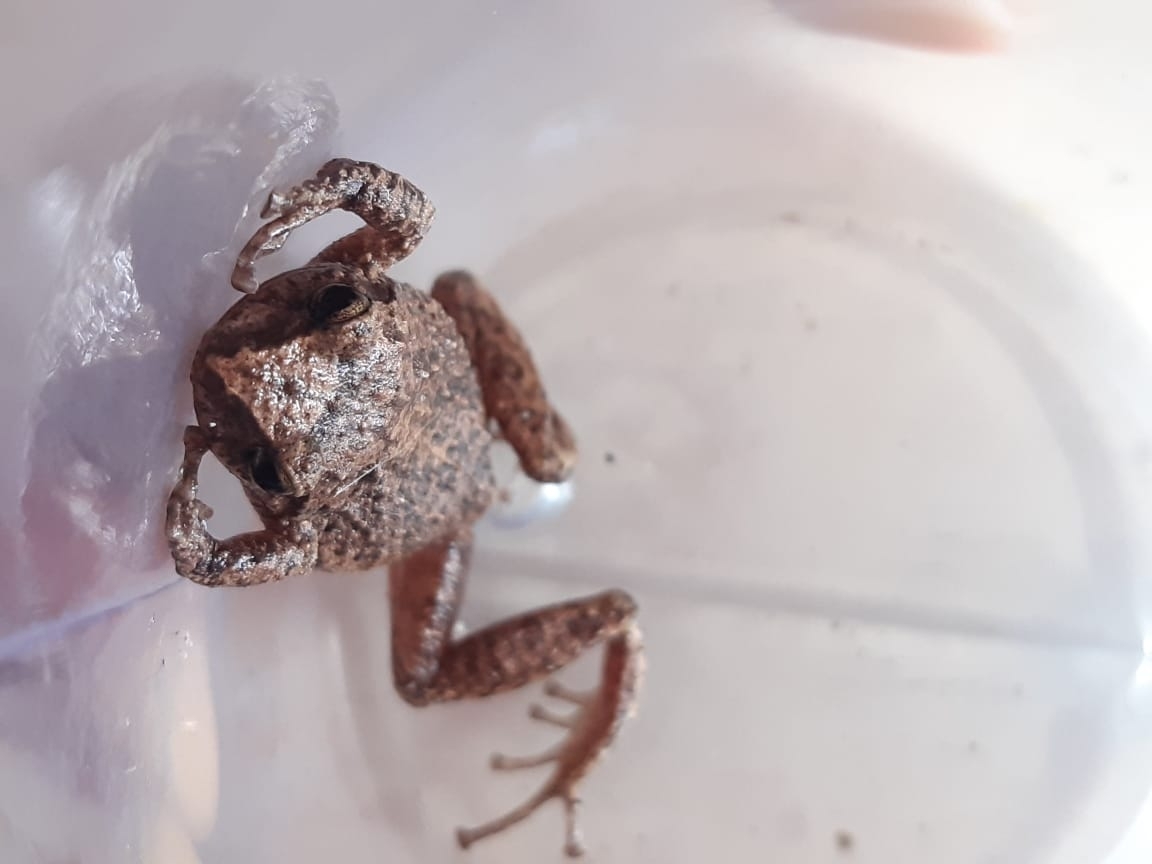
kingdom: Animalia
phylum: Chordata
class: Amphibia
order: Anura
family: Craugastoridae
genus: Pristimantis
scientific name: Pristimantis unistrigatus
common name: Striped robber frog
